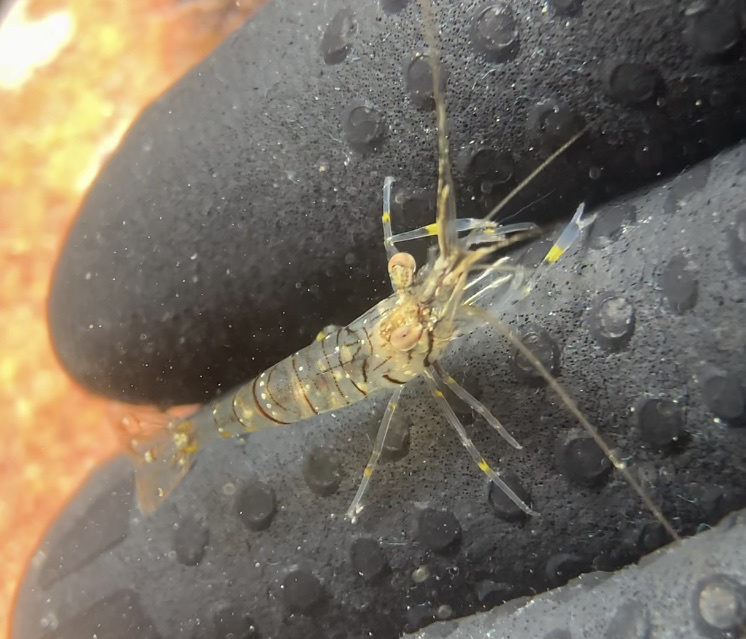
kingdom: Animalia
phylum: Arthropoda
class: Malacostraca
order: Decapoda
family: Palaemonidae
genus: Palaemon
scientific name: Palaemon elegans
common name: Grass prawm
